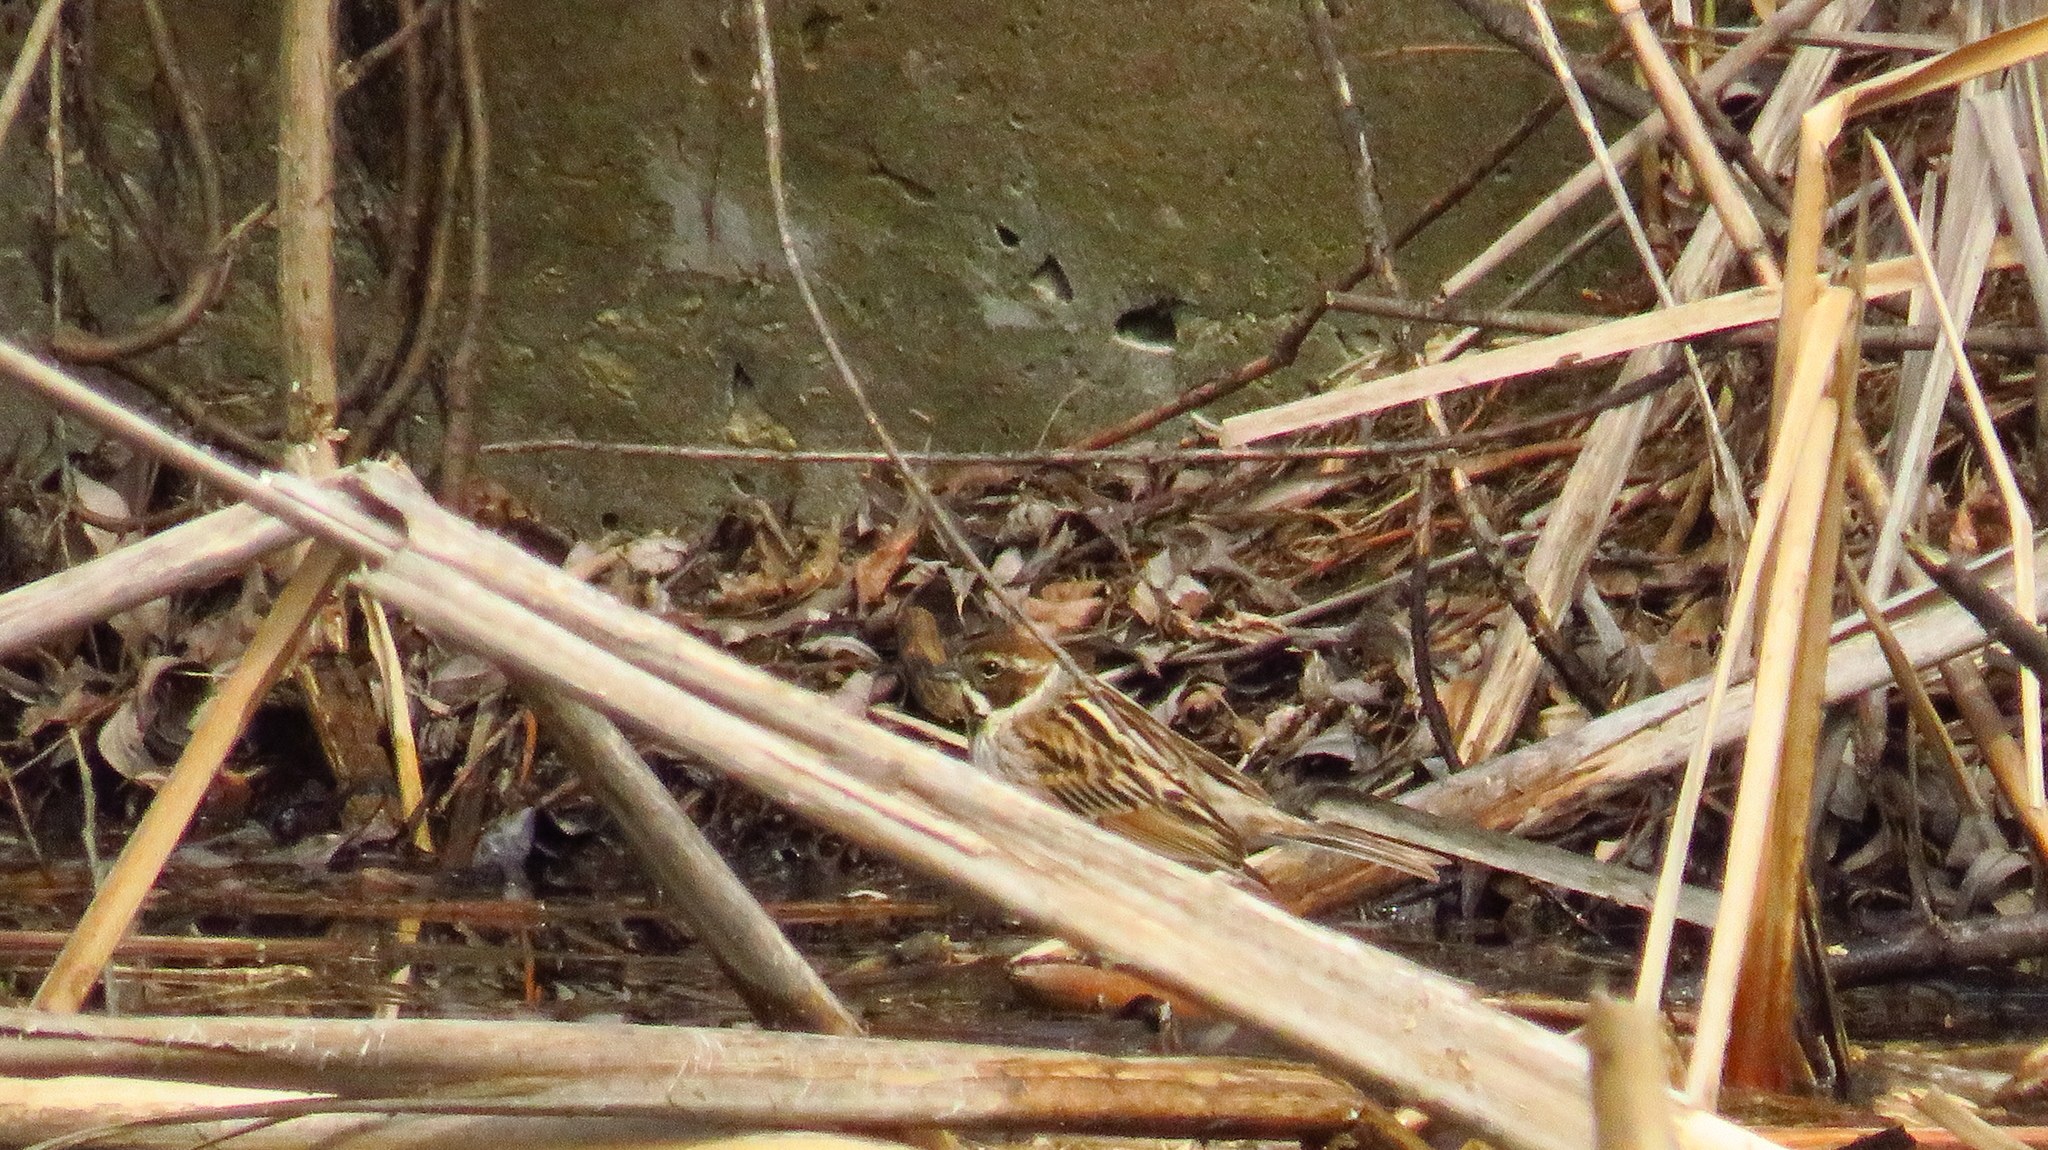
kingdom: Animalia
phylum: Chordata
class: Aves
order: Passeriformes
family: Emberizidae
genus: Emberiza
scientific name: Emberiza schoeniclus
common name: Reed bunting
